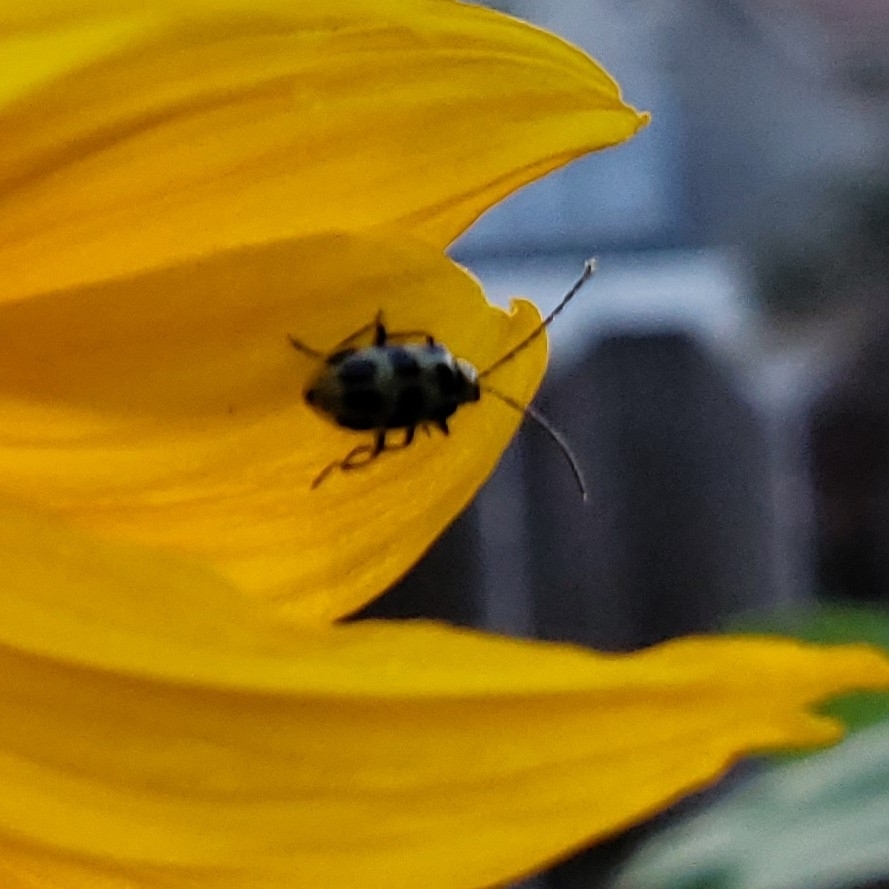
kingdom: Animalia
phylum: Arthropoda
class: Insecta
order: Coleoptera
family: Chrysomelidae
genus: Diabrotica
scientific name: Diabrotica undecimpunctata
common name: Spotted cucumber beetle
